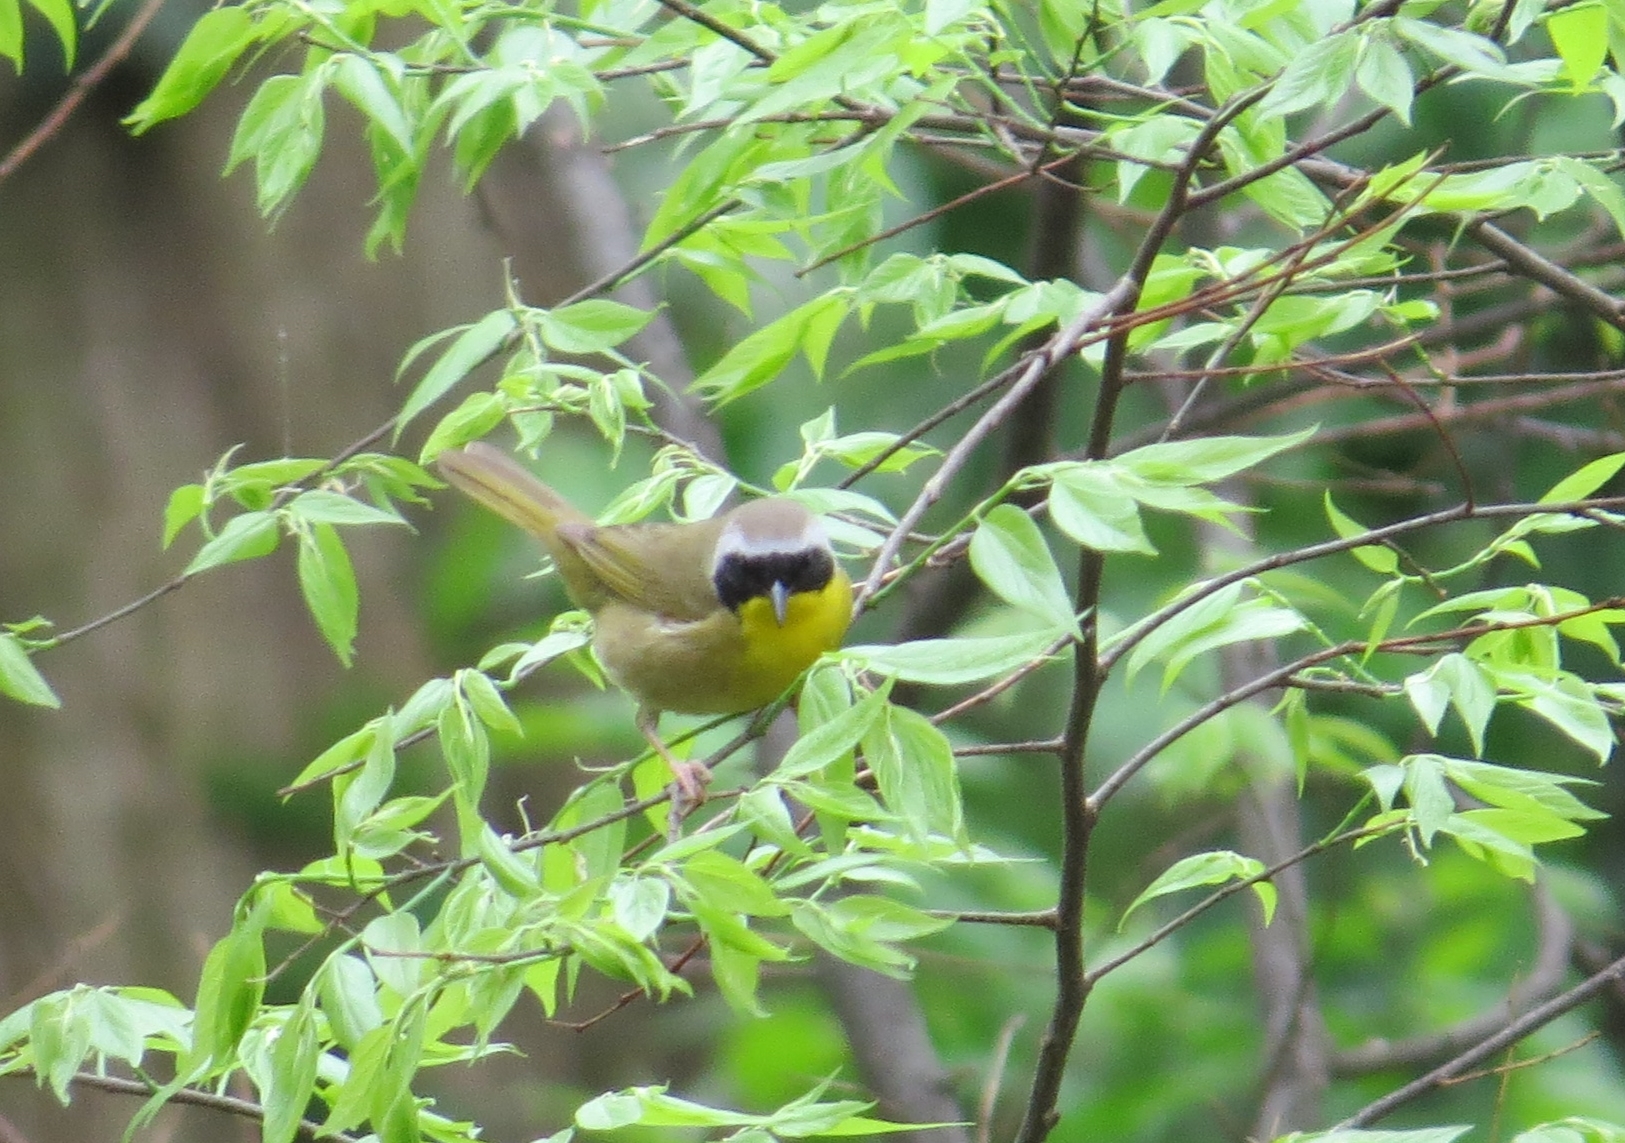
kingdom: Animalia
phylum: Chordata
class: Aves
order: Passeriformes
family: Parulidae
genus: Geothlypis
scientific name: Geothlypis trichas
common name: Common yellowthroat
